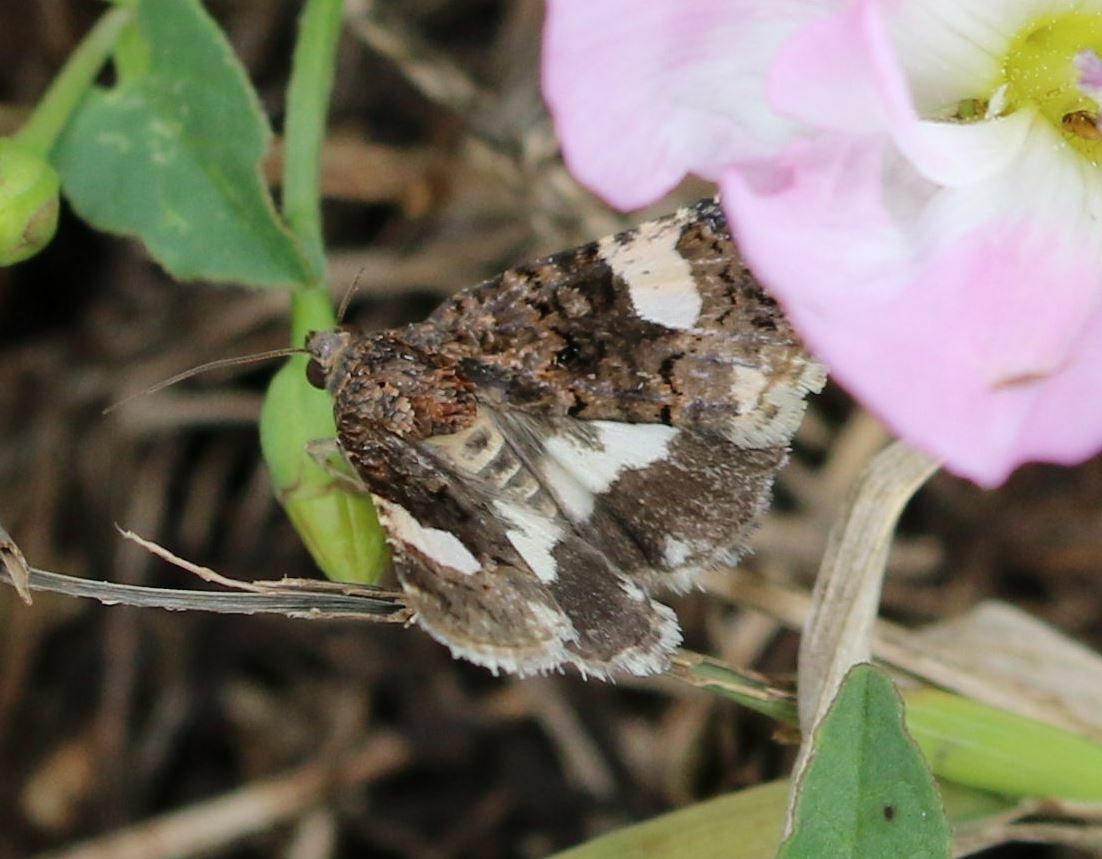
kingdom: Animalia
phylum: Arthropoda
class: Insecta
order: Lepidoptera
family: Erebidae
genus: Tyta
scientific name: Tyta luctuosa
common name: Four-spotted
